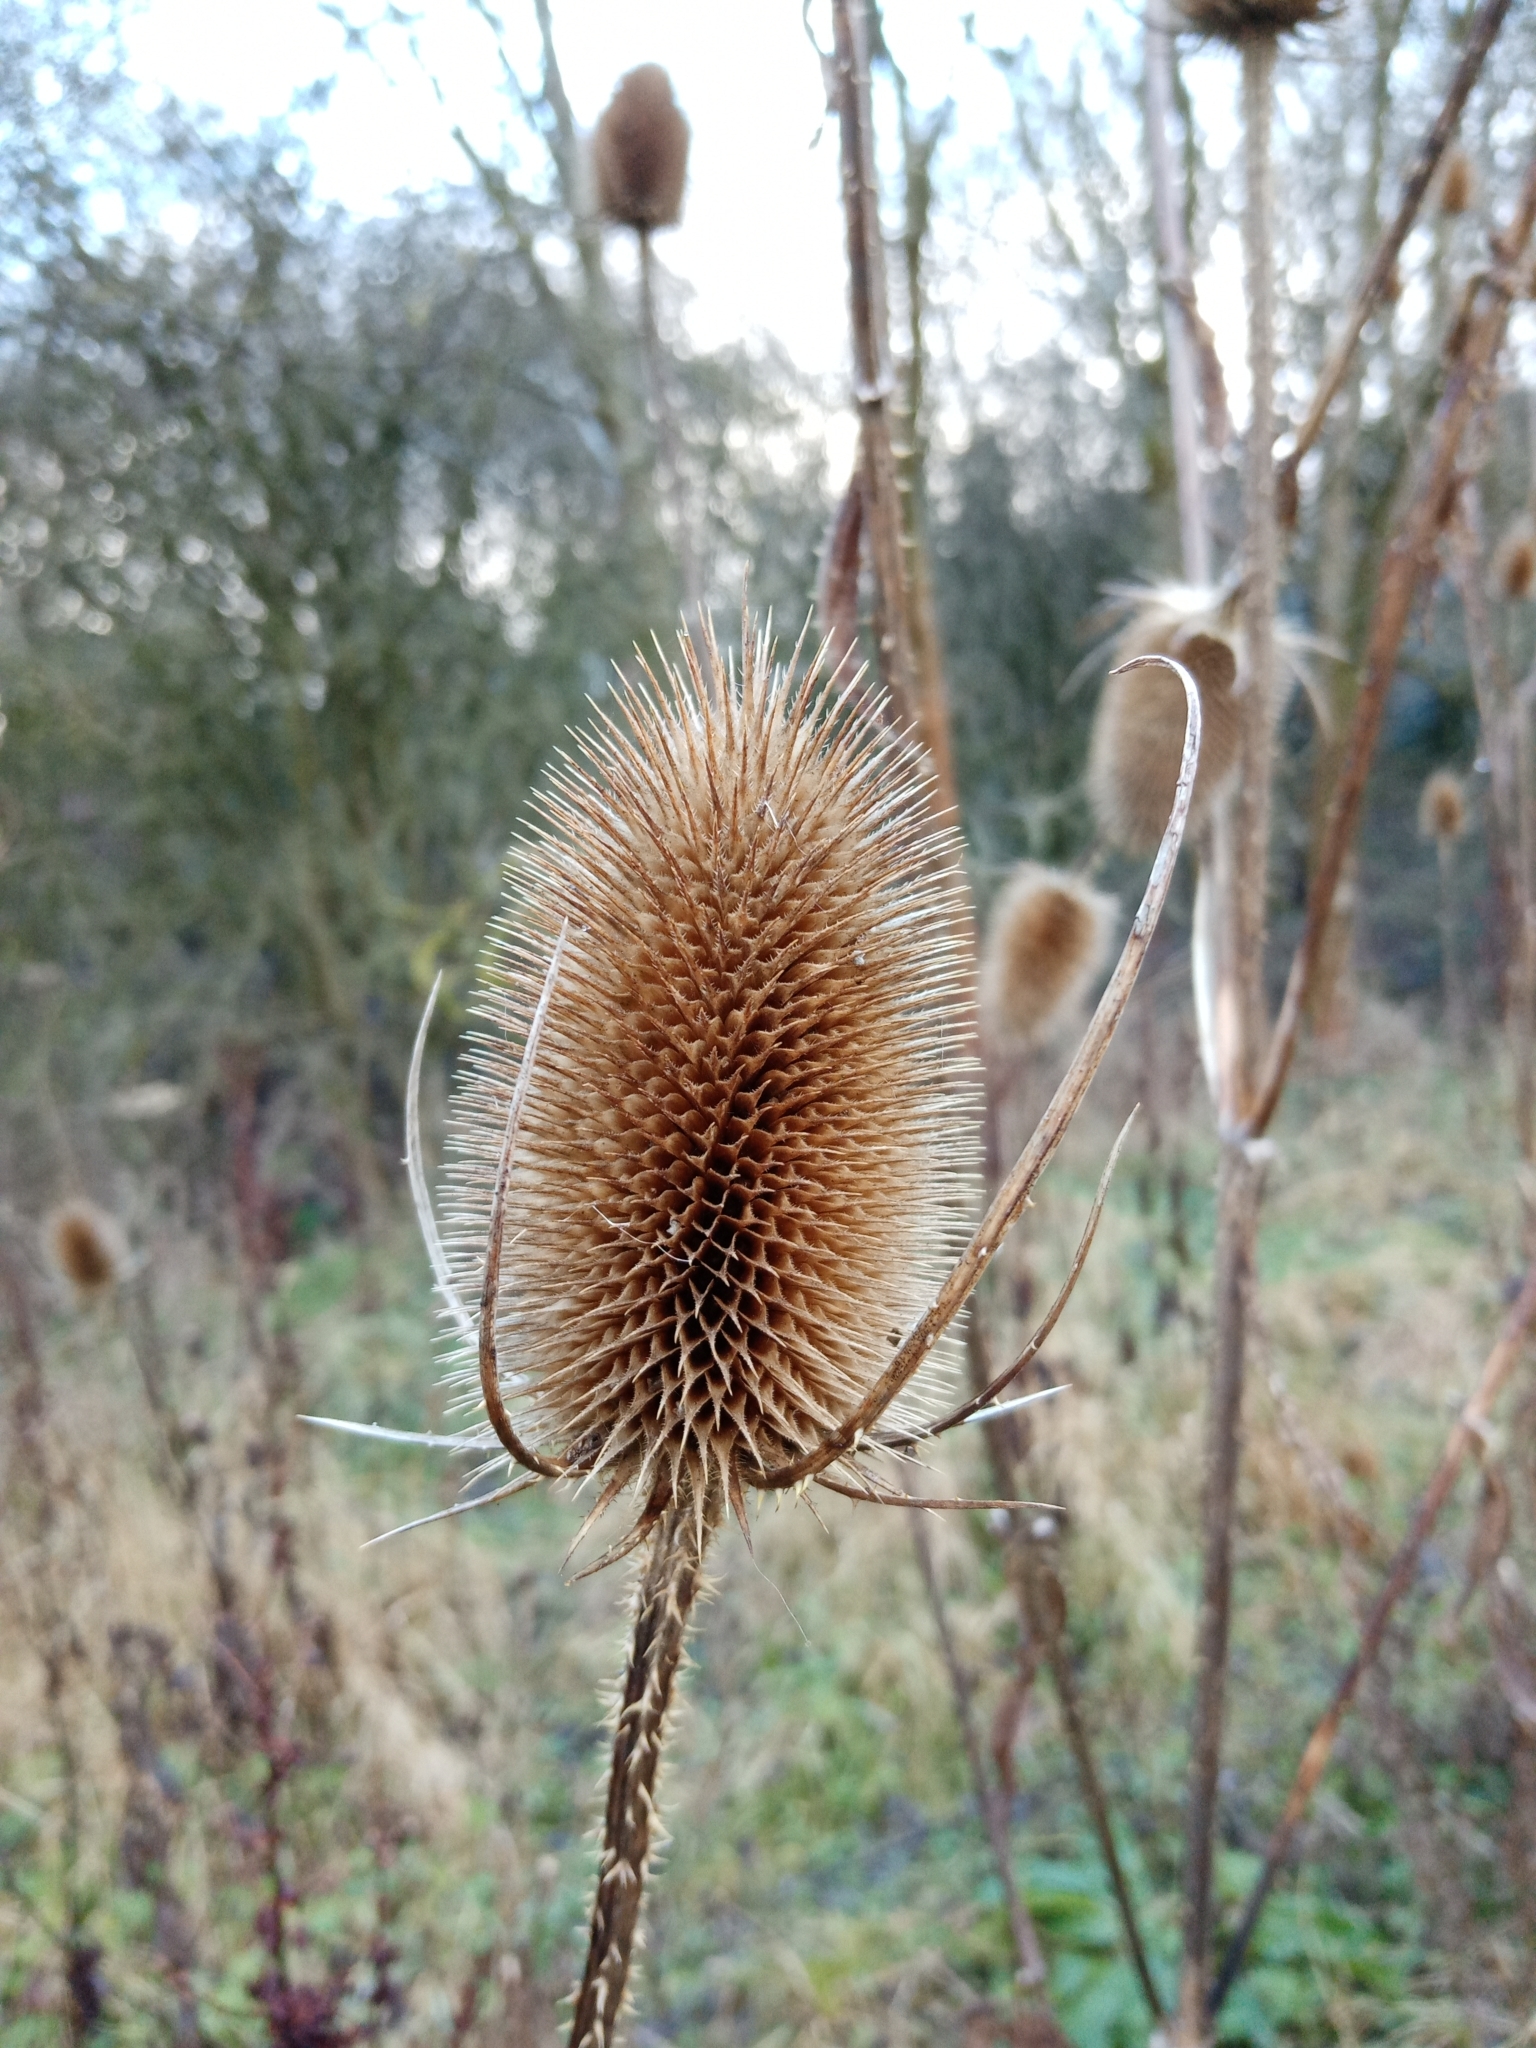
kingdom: Plantae
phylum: Tracheophyta
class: Magnoliopsida
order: Dipsacales
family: Caprifoliaceae
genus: Dipsacus
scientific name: Dipsacus fullonum
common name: Teasel
